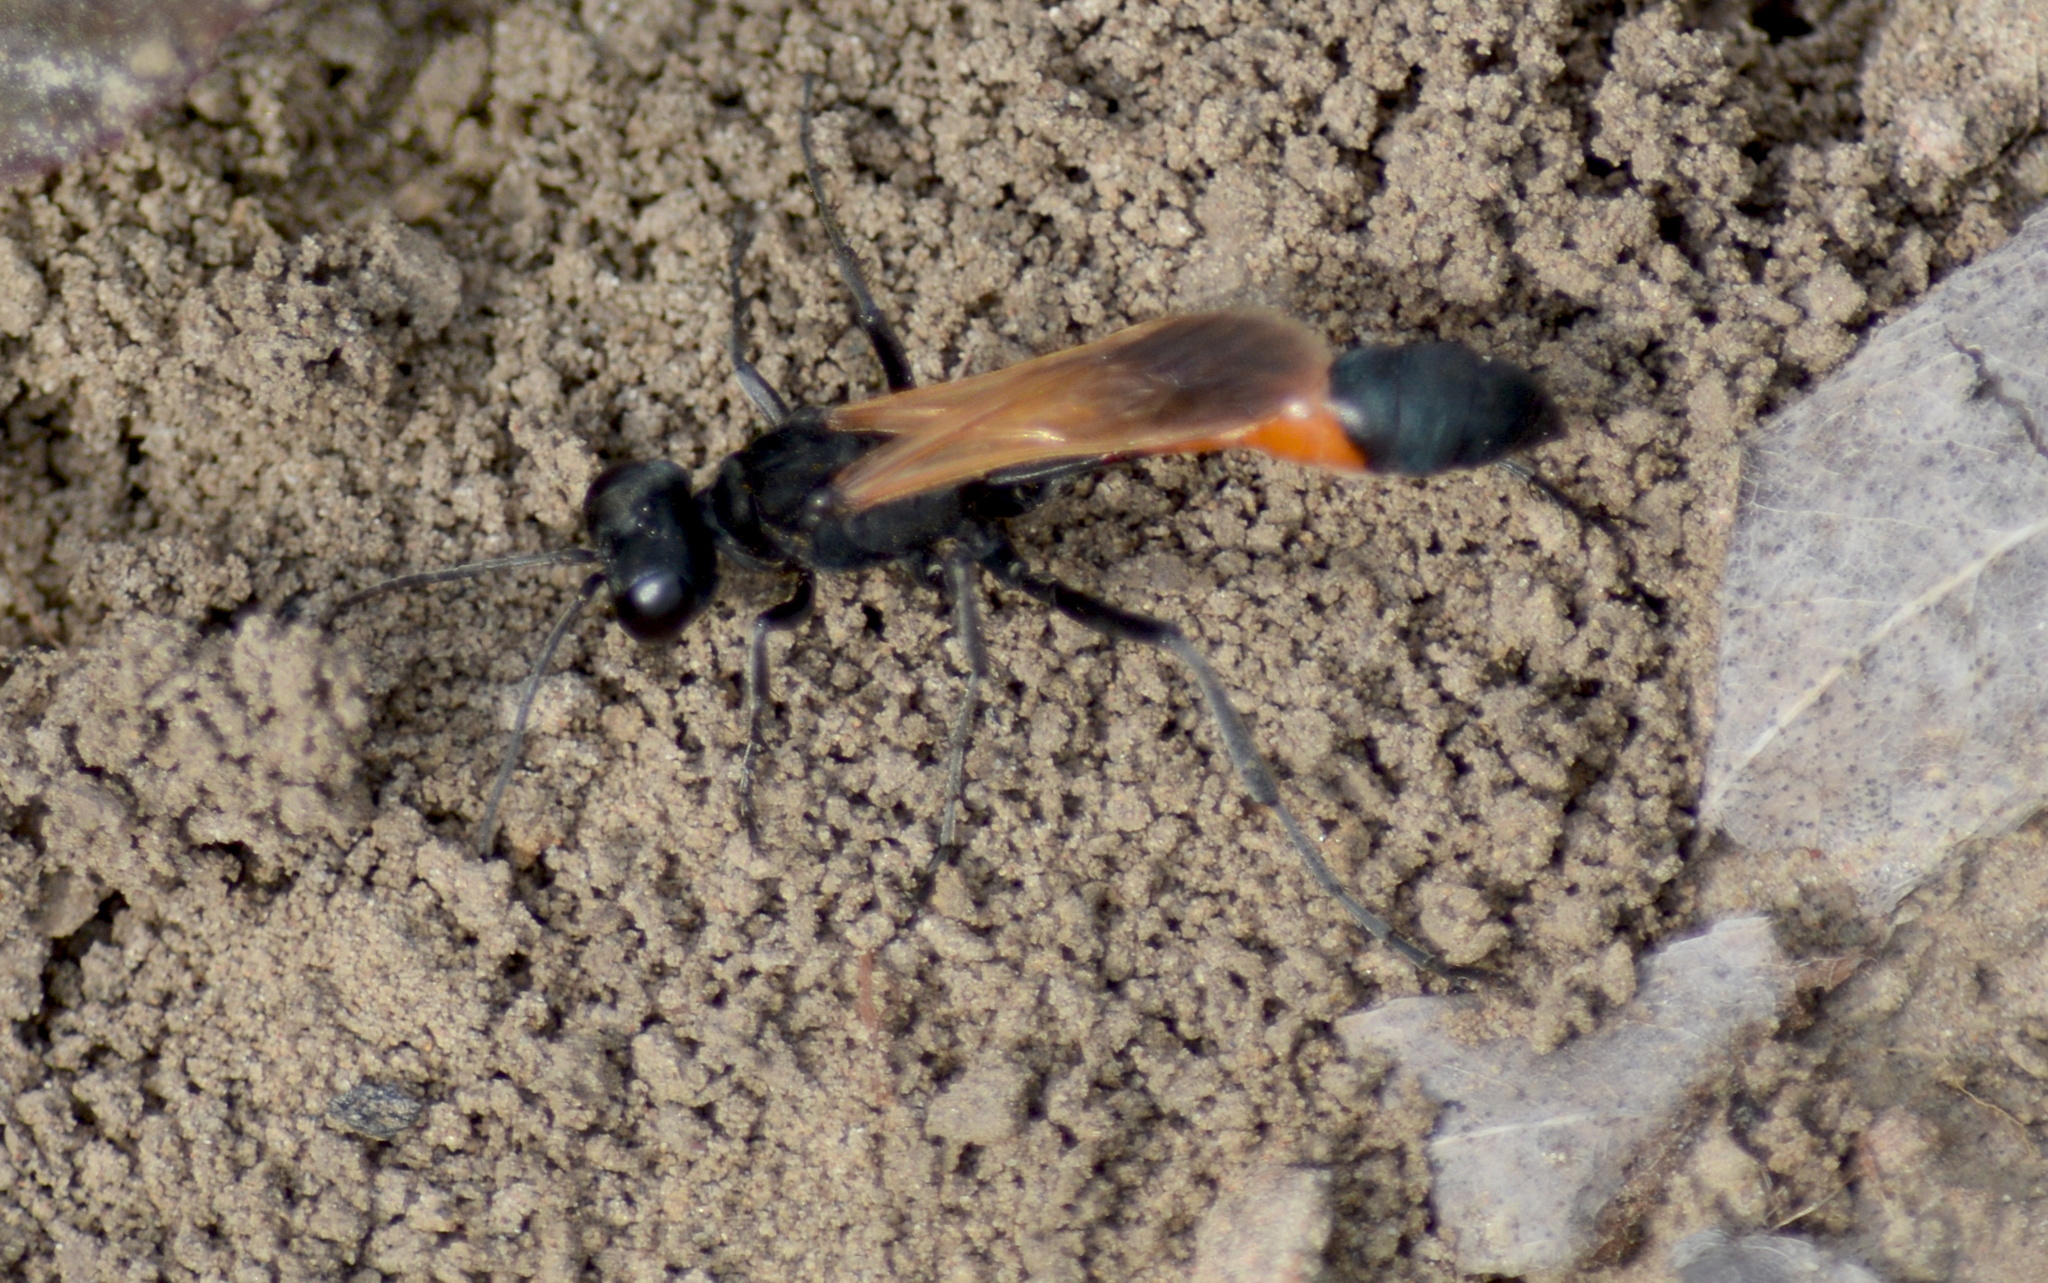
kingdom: Animalia
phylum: Arthropoda
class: Insecta
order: Hymenoptera
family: Sphecidae
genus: Ammophila
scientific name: Ammophila pictipennis
